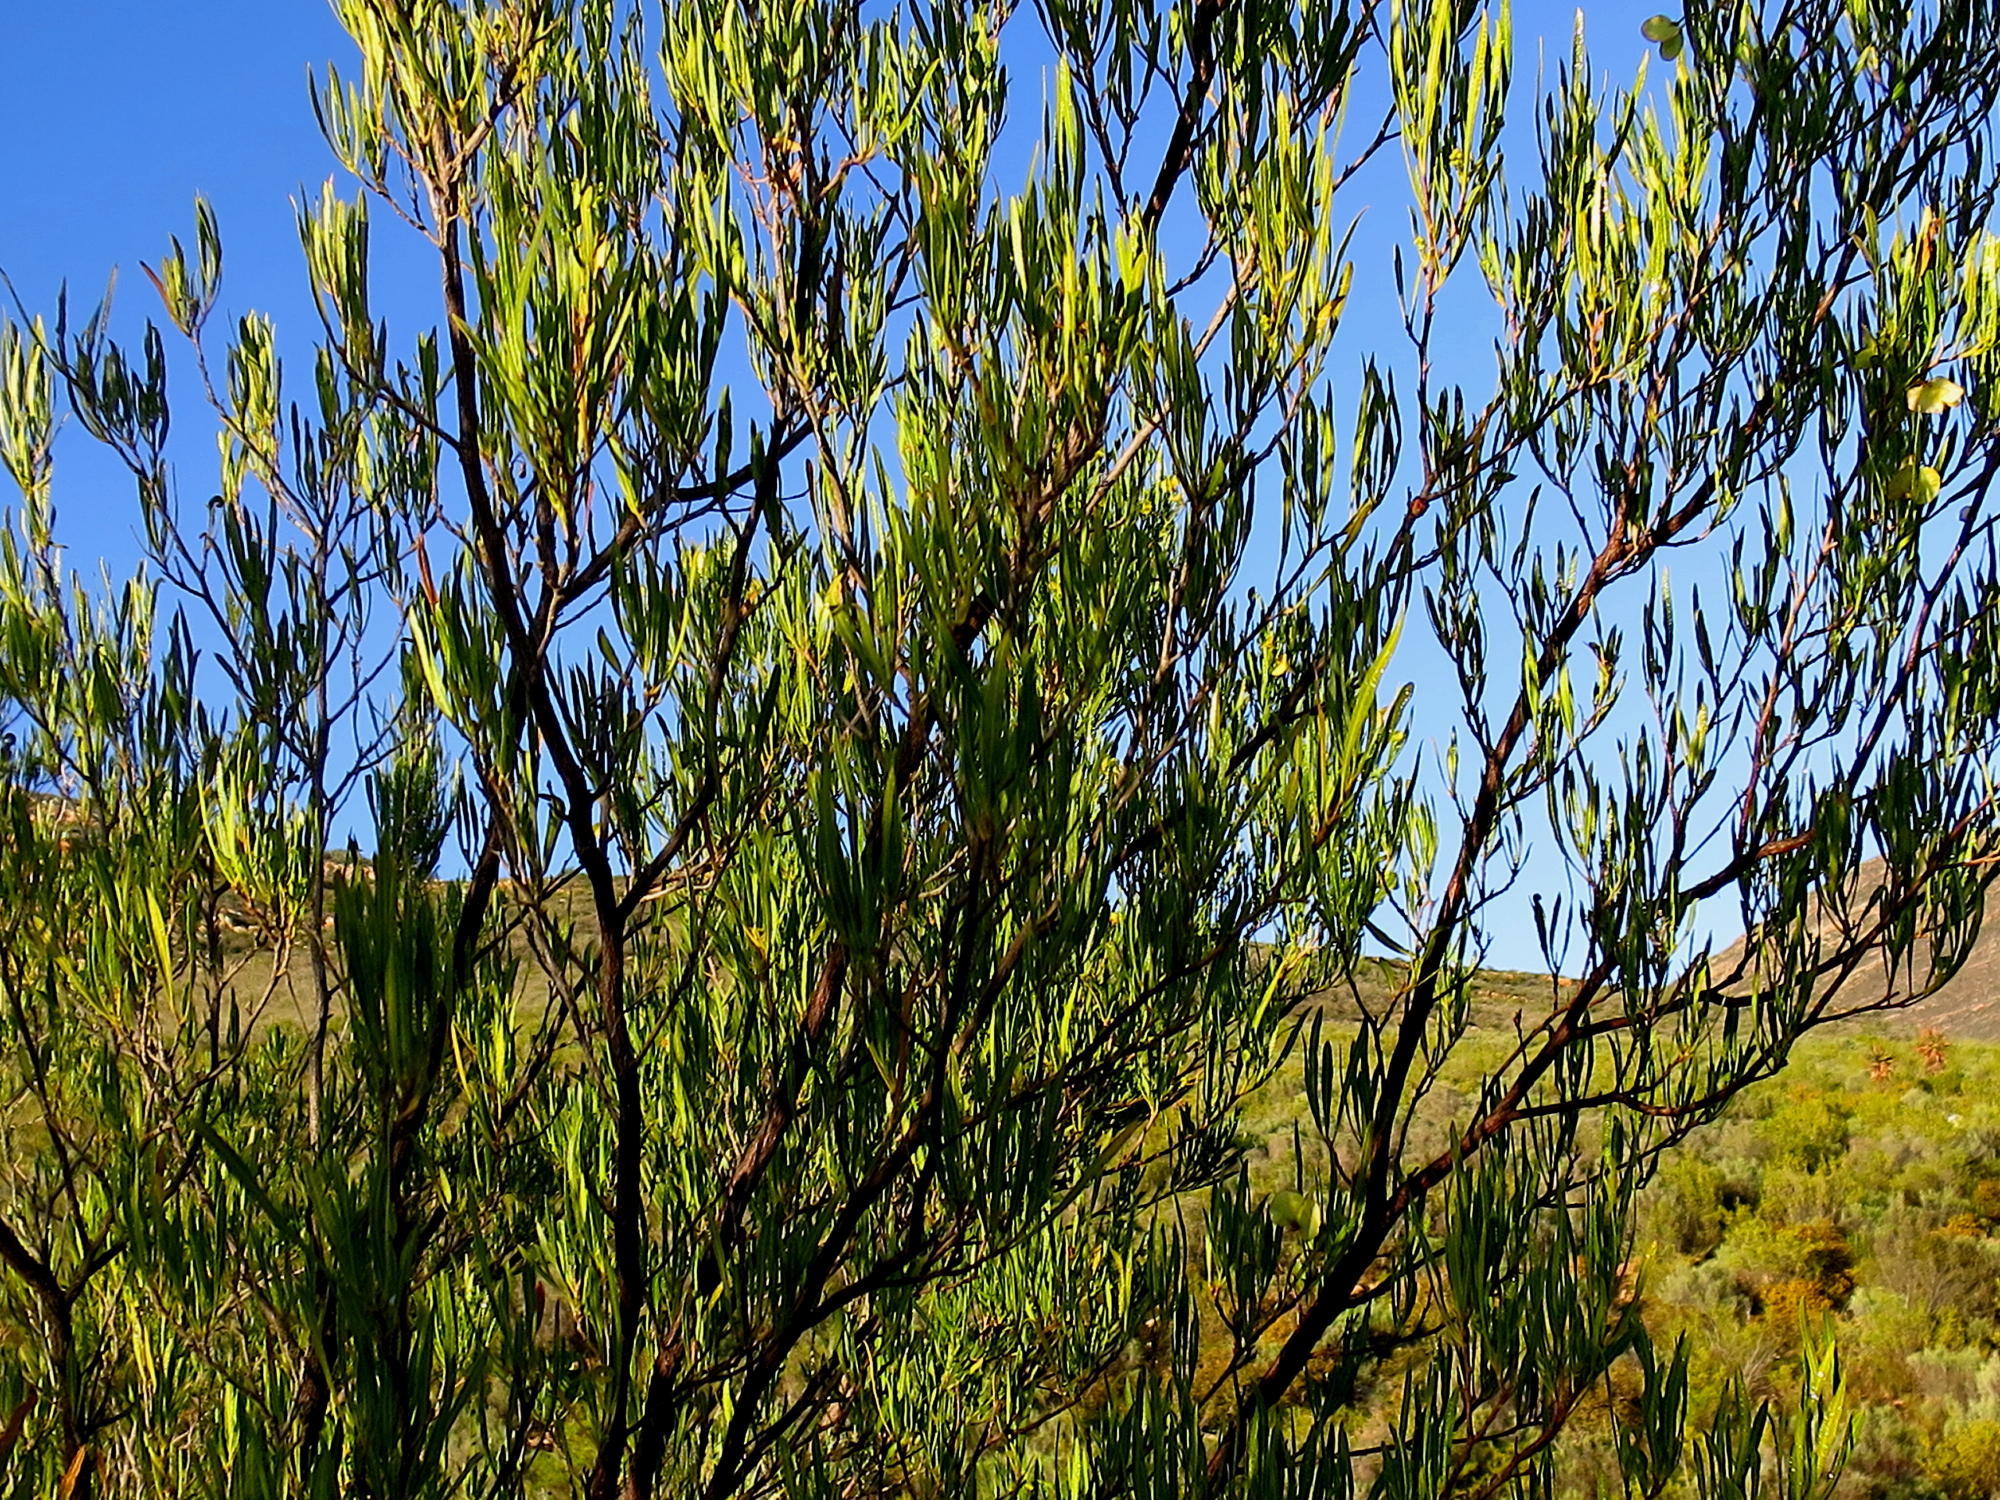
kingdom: Plantae
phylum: Tracheophyta
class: Magnoliopsida
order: Sapindales
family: Sapindaceae
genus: Dodonaea
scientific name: Dodonaea viscosa
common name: Hopbush
